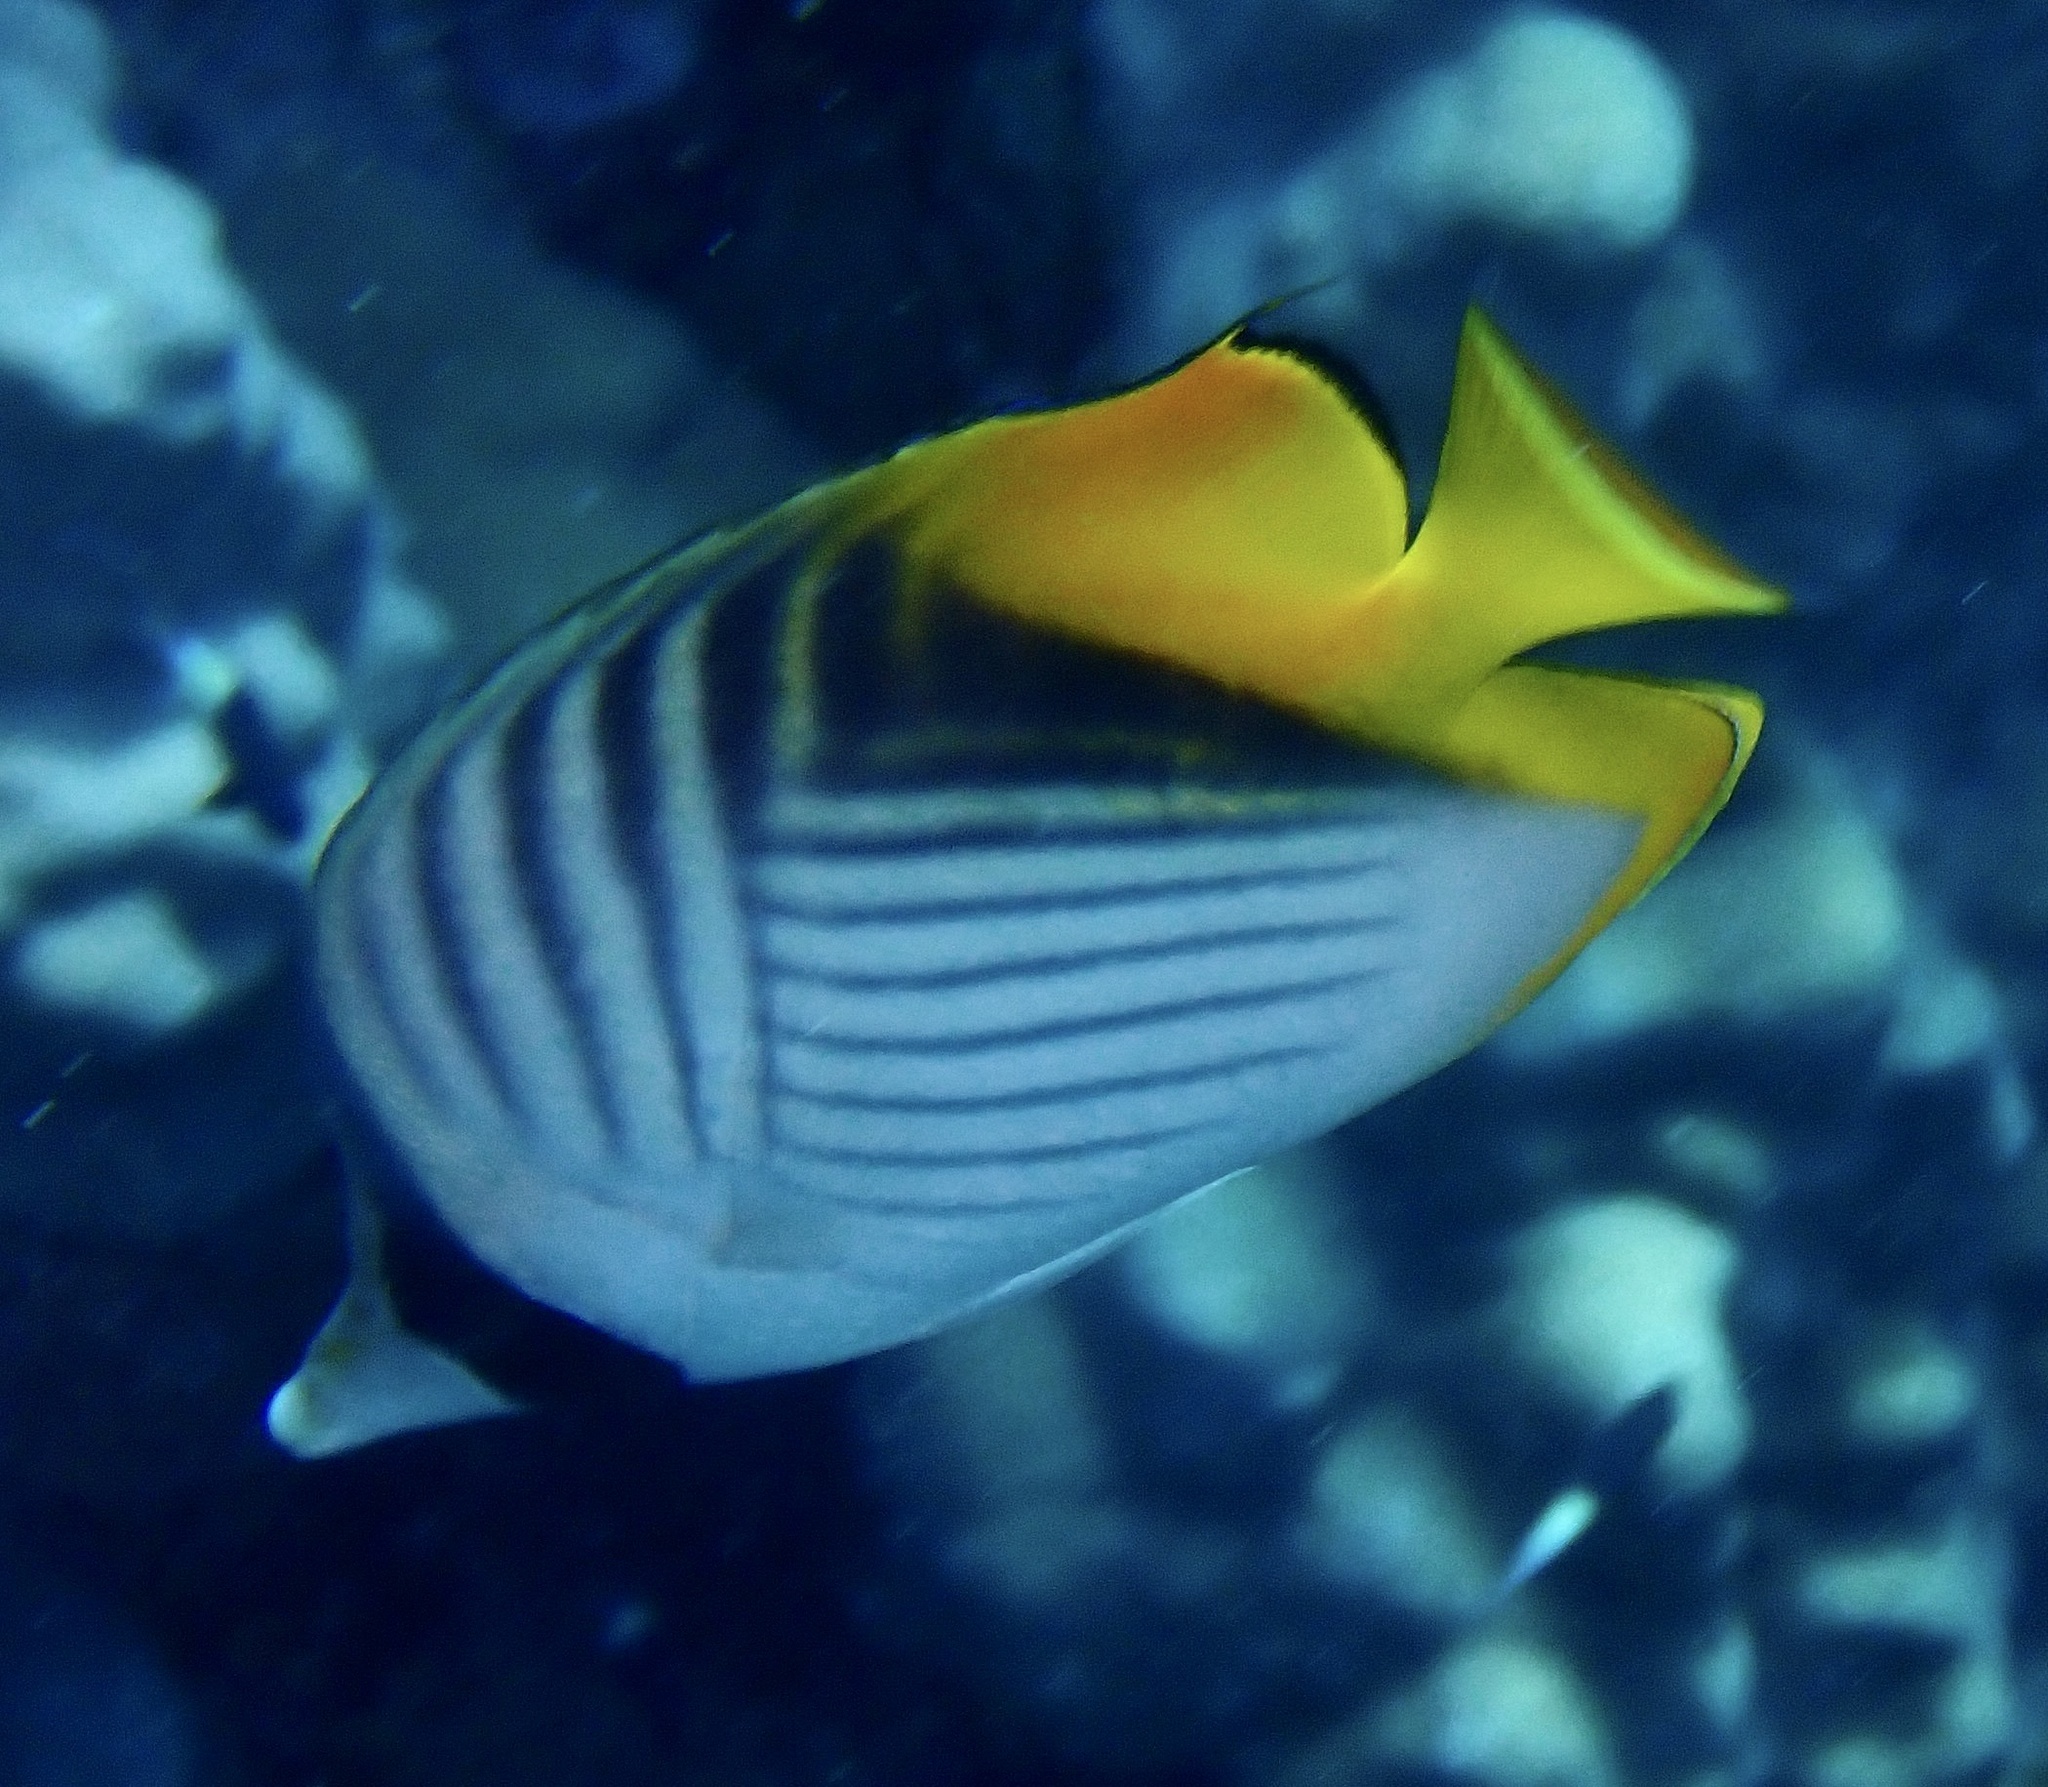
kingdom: Animalia
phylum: Chordata
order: Perciformes
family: Chaetodontidae
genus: Chaetodon
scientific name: Chaetodon auriga
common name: Threadfin butterflyfish
